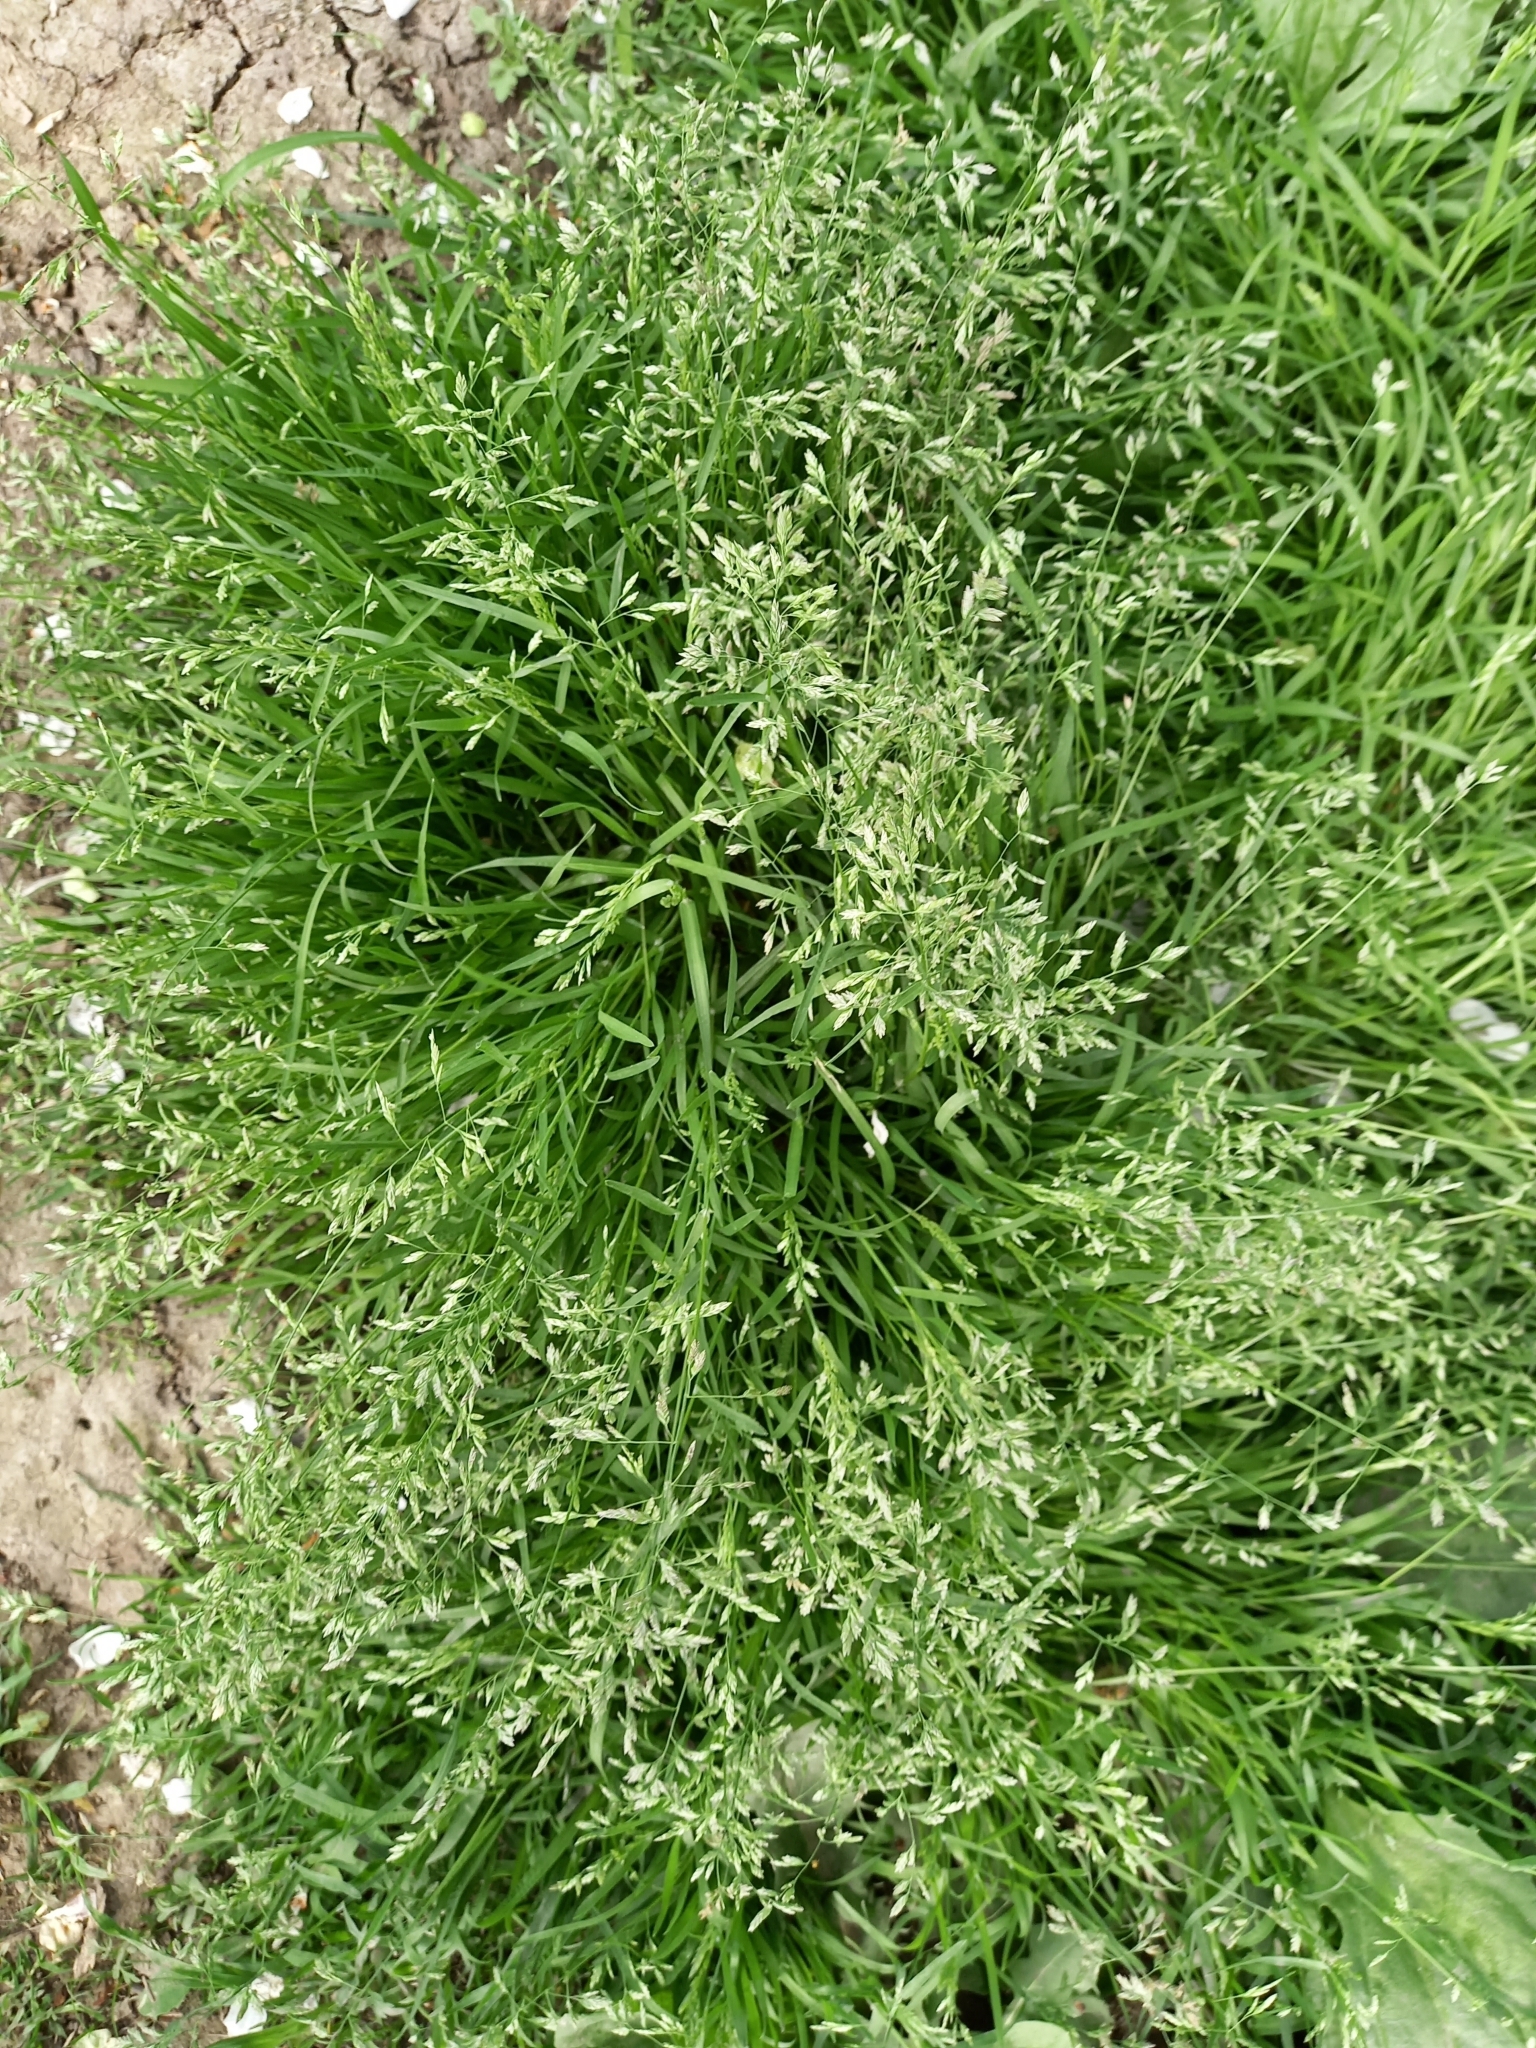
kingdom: Plantae
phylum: Tracheophyta
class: Liliopsida
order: Poales
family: Poaceae
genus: Poa
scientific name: Poa annua
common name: Annual bluegrass
